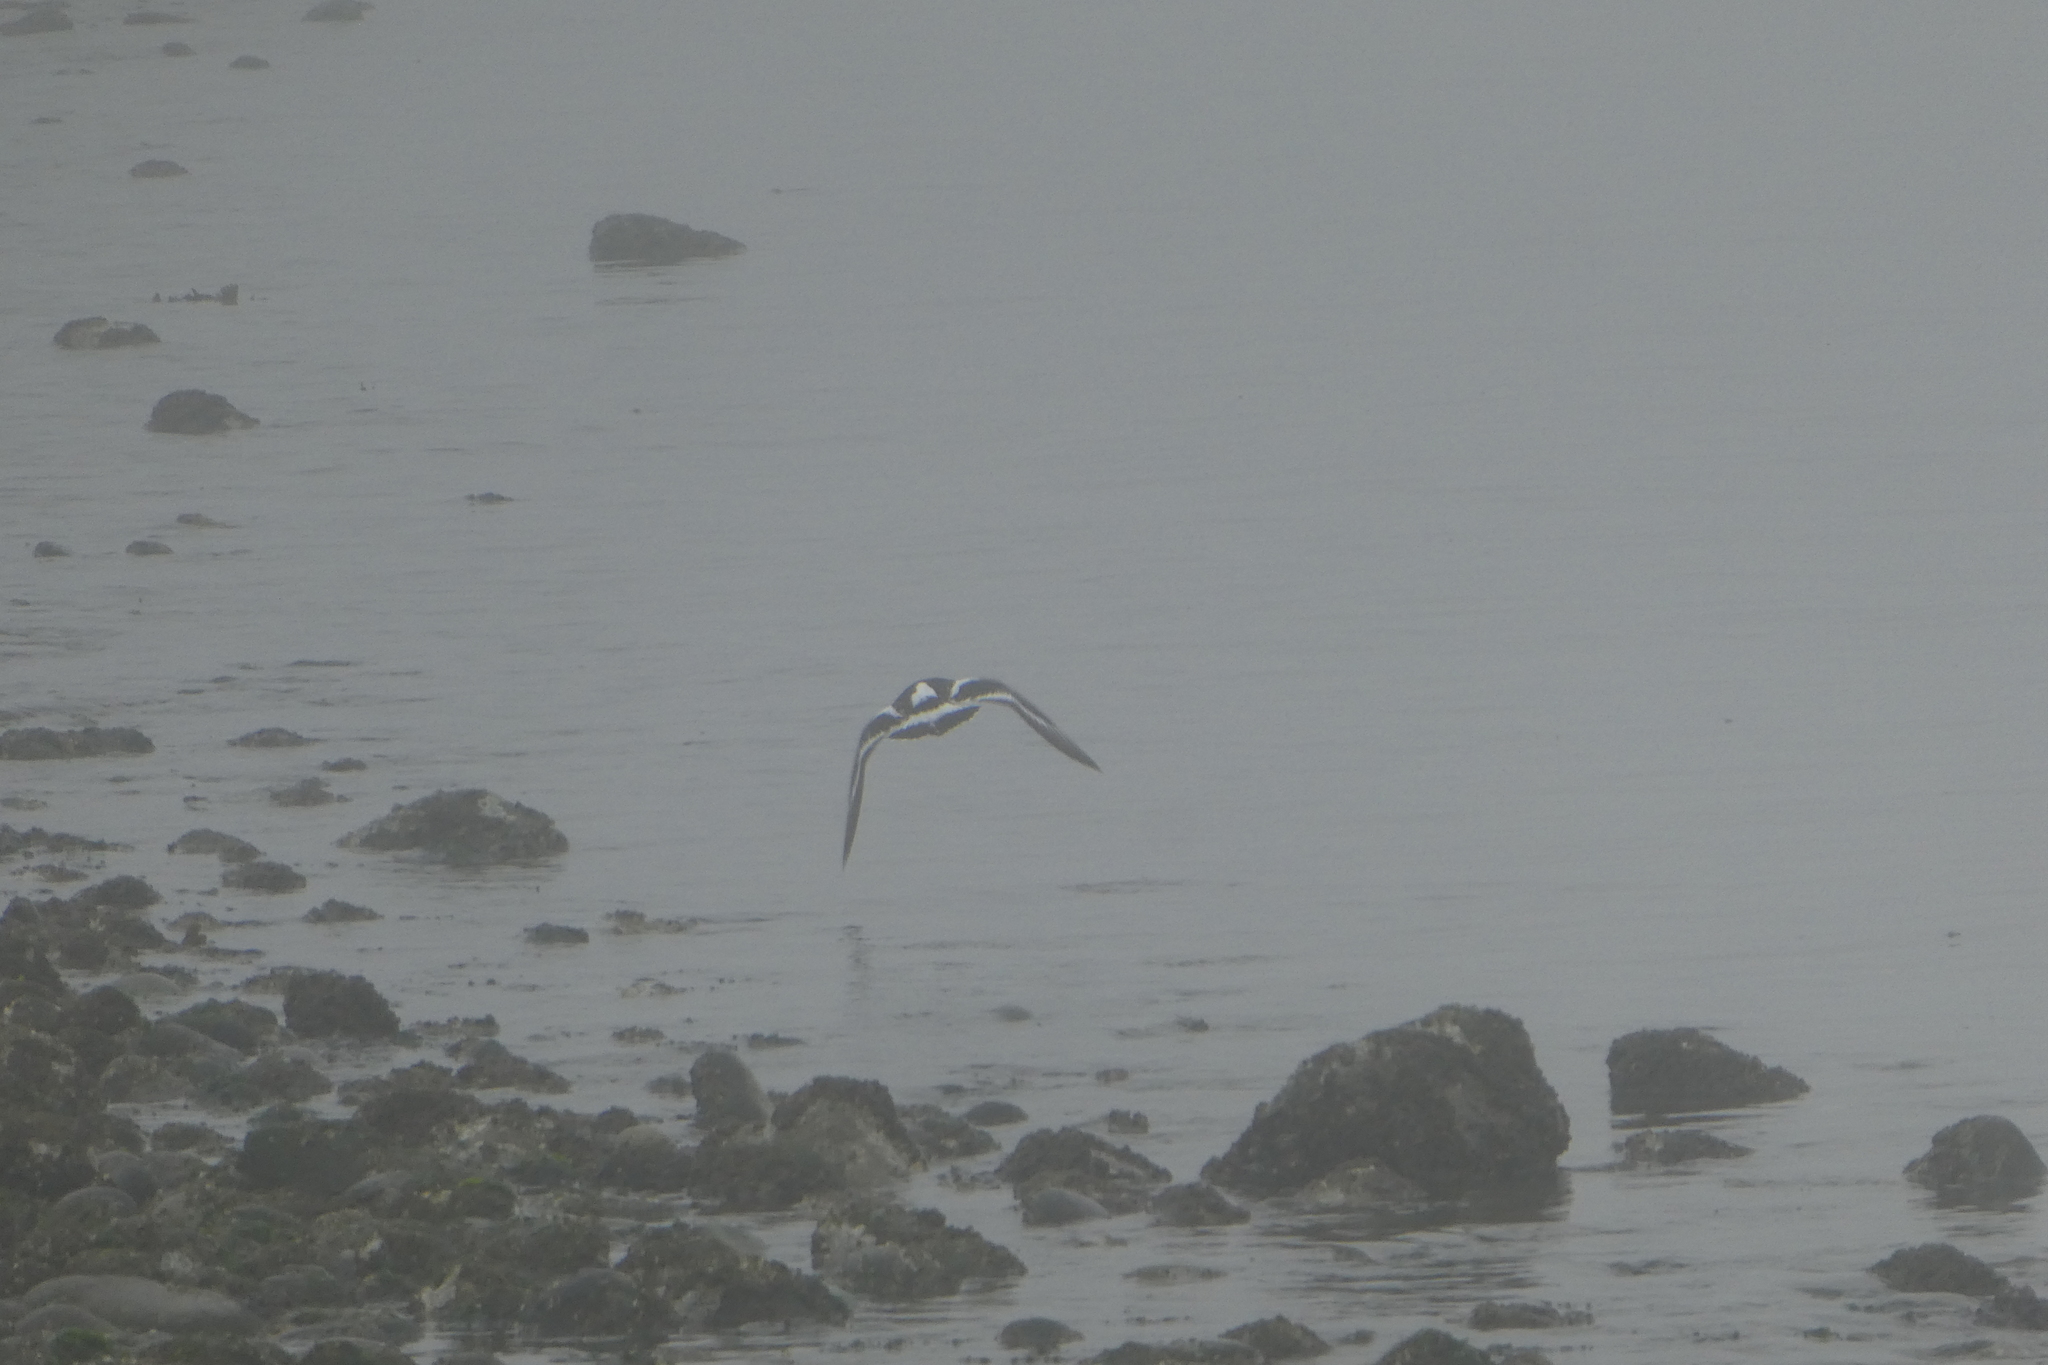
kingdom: Animalia
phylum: Chordata
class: Aves
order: Charadriiformes
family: Scolopacidae
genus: Arenaria
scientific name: Arenaria melanocephala
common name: Black turnstone
